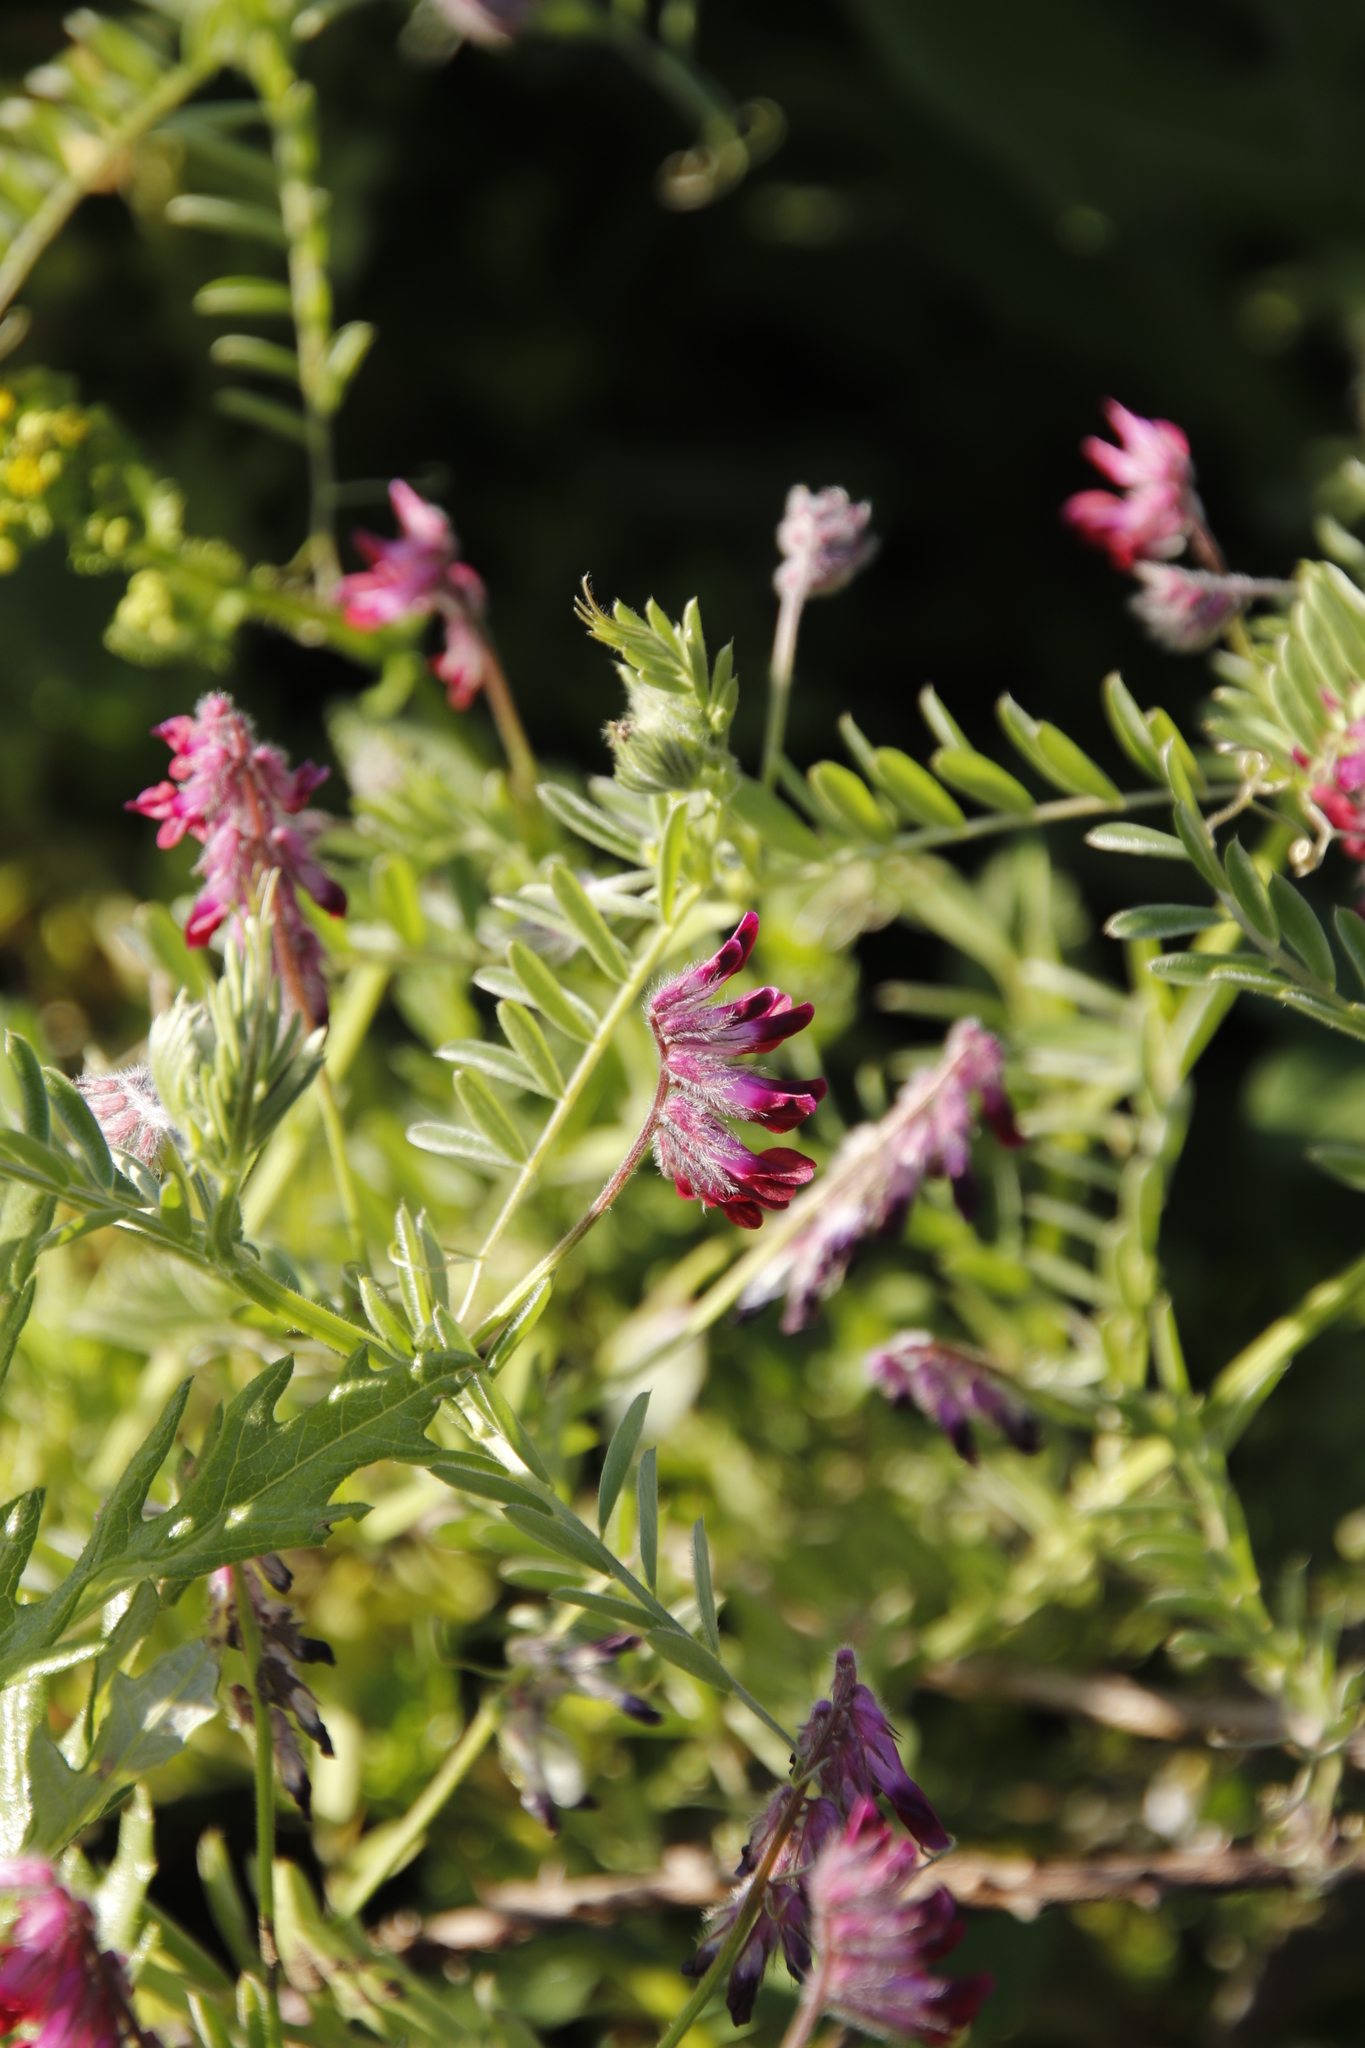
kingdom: Plantae
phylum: Tracheophyta
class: Magnoliopsida
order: Fabales
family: Fabaceae
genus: Vicia
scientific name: Vicia benghalensis
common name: Purple vetch
